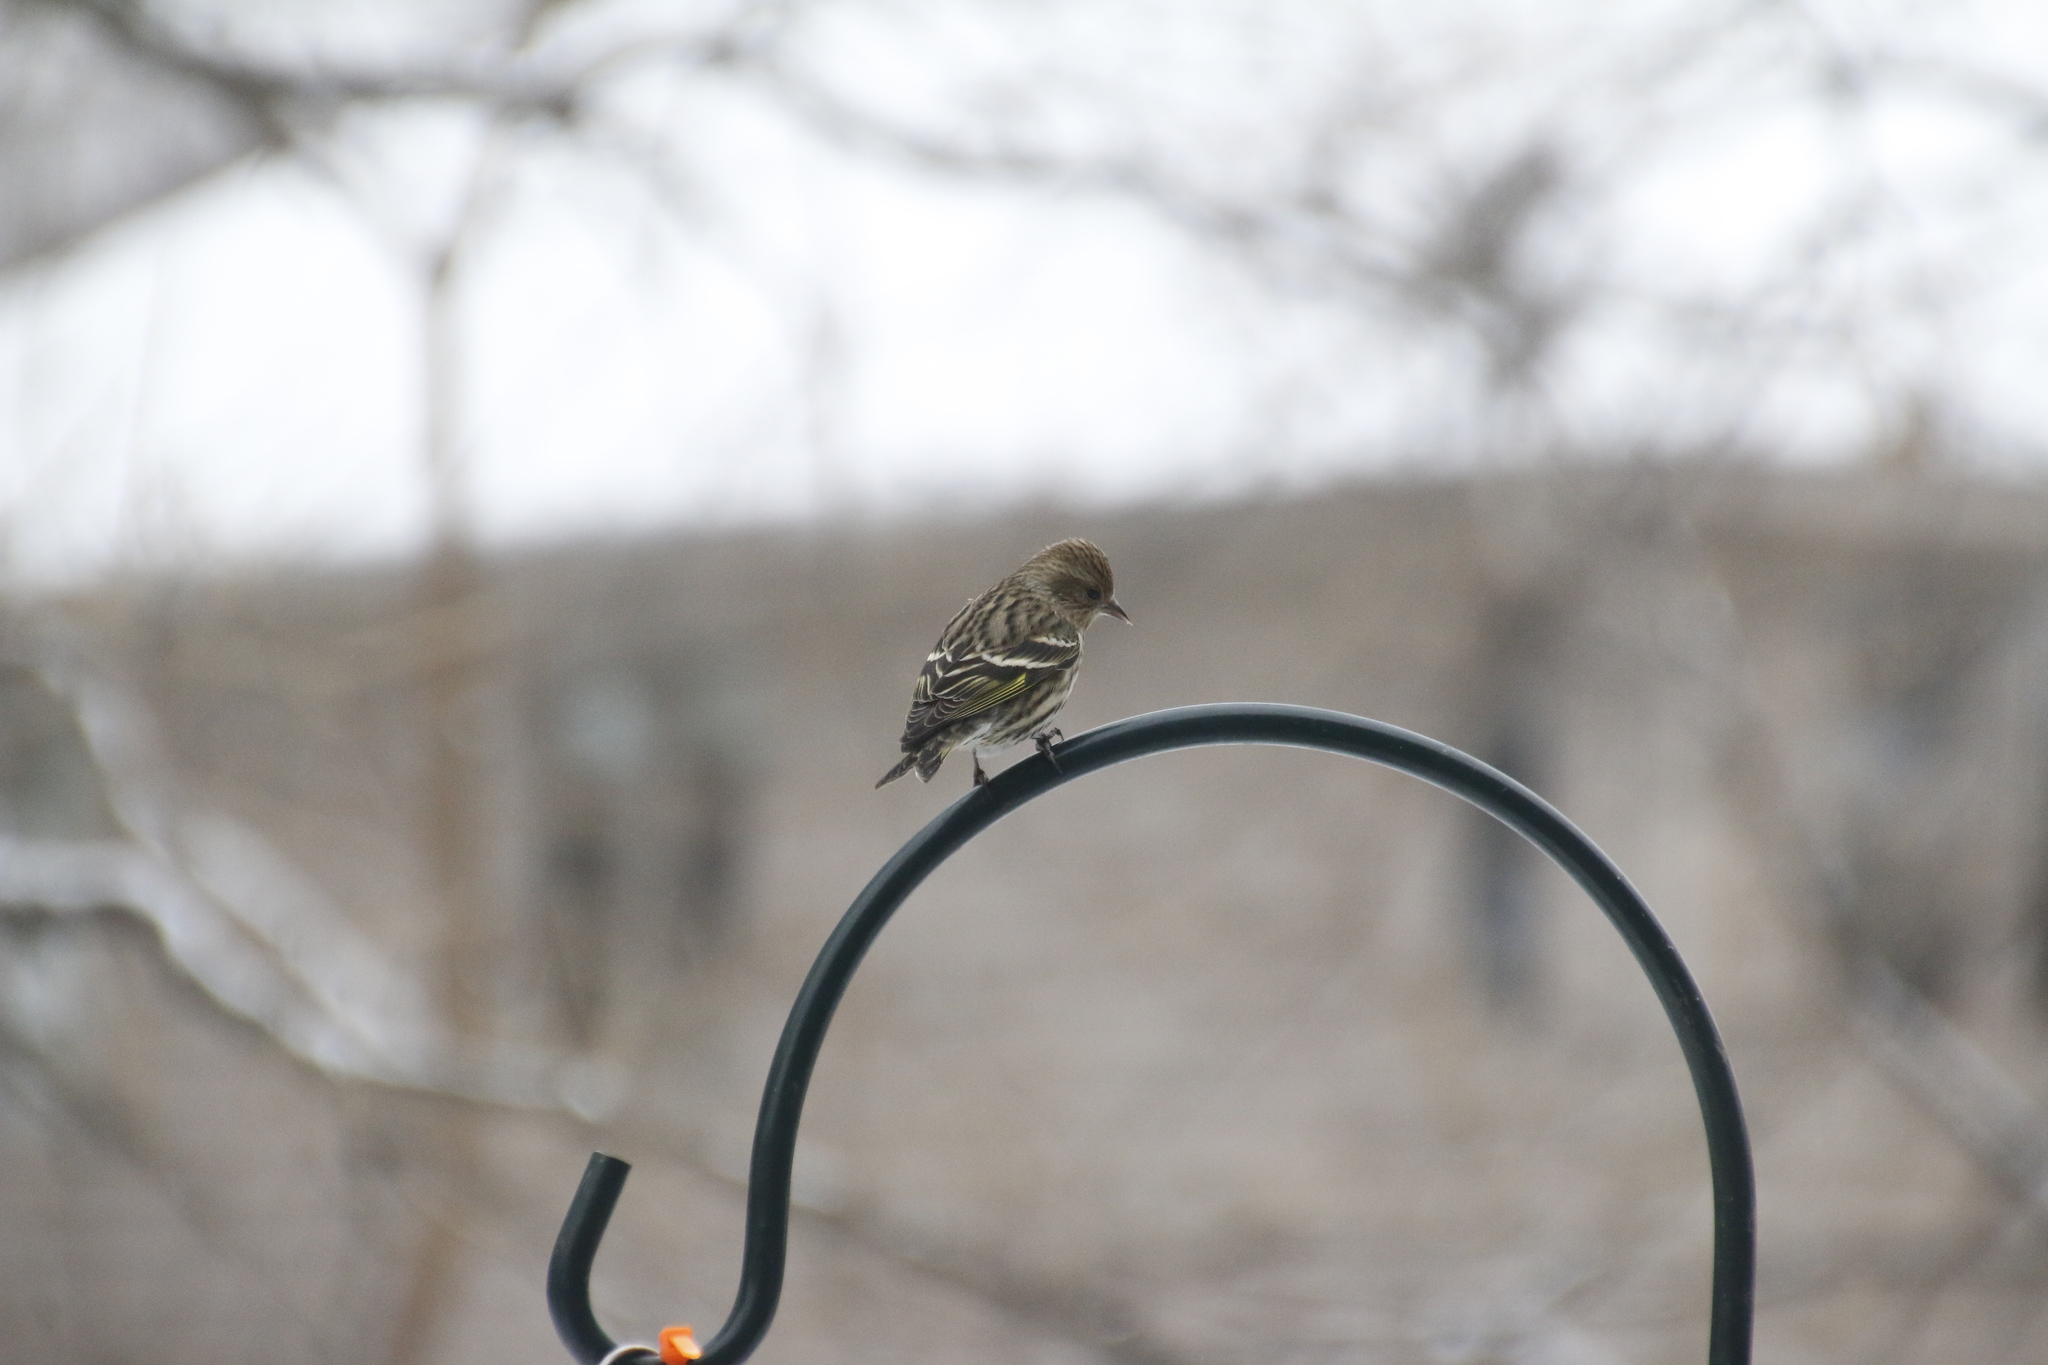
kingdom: Animalia
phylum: Chordata
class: Aves
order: Passeriformes
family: Fringillidae
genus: Spinus
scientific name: Spinus pinus
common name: Pine siskin
